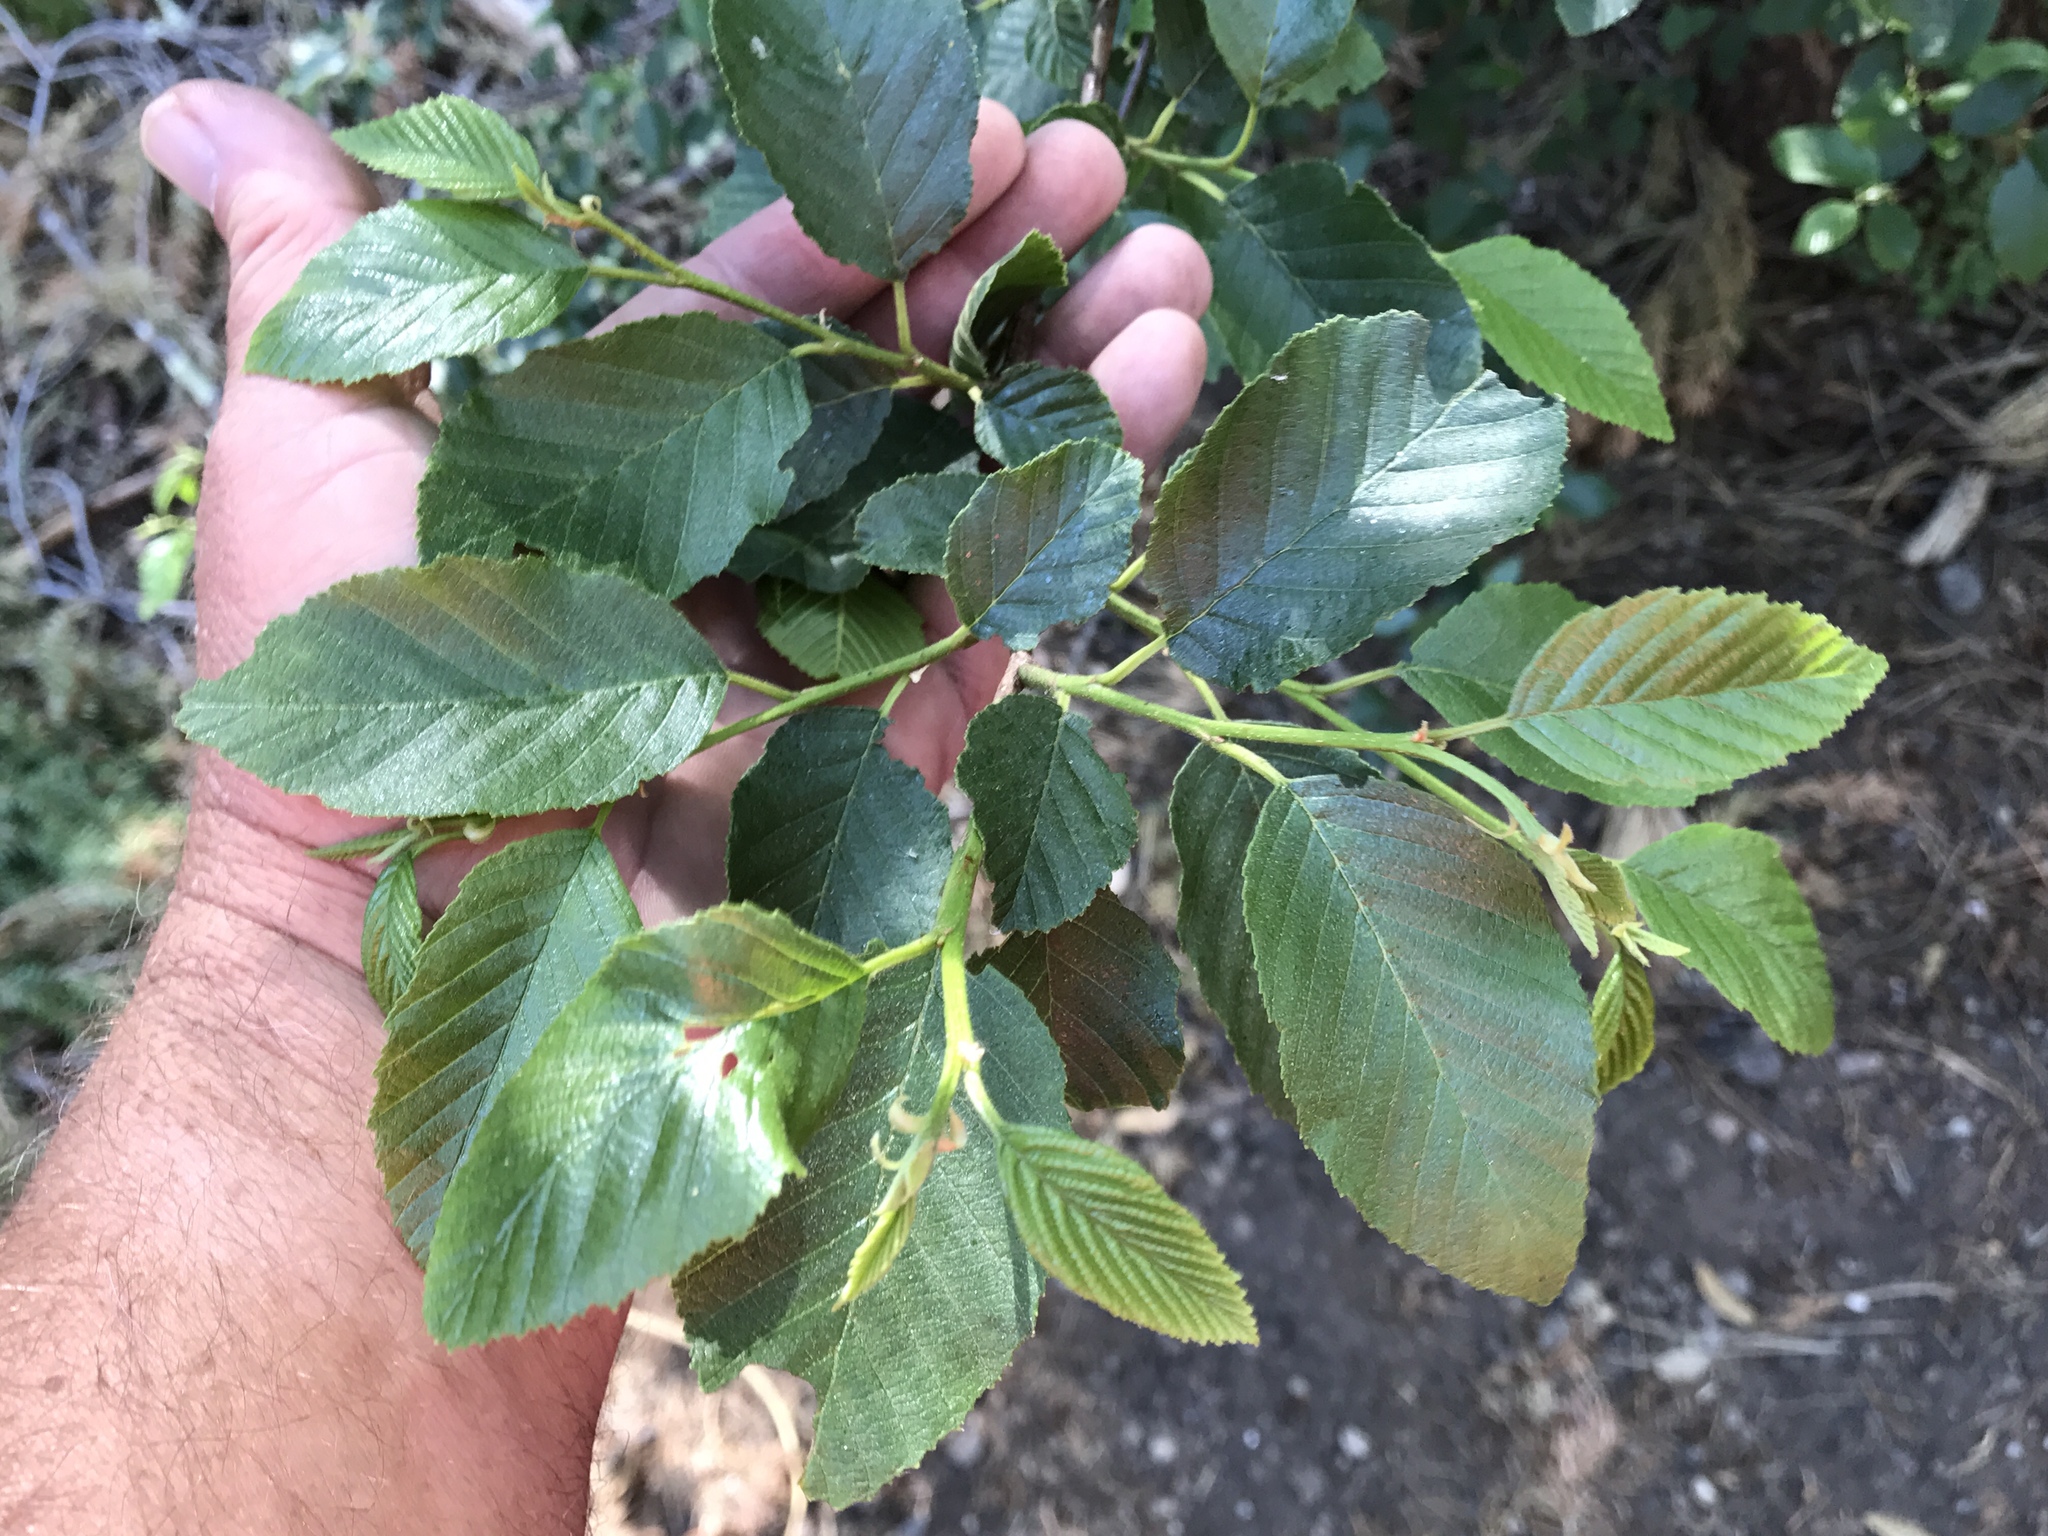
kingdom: Plantae
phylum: Tracheophyta
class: Magnoliopsida
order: Fagales
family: Betulaceae
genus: Alnus
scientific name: Alnus oblongifolia
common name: Arizona alder
